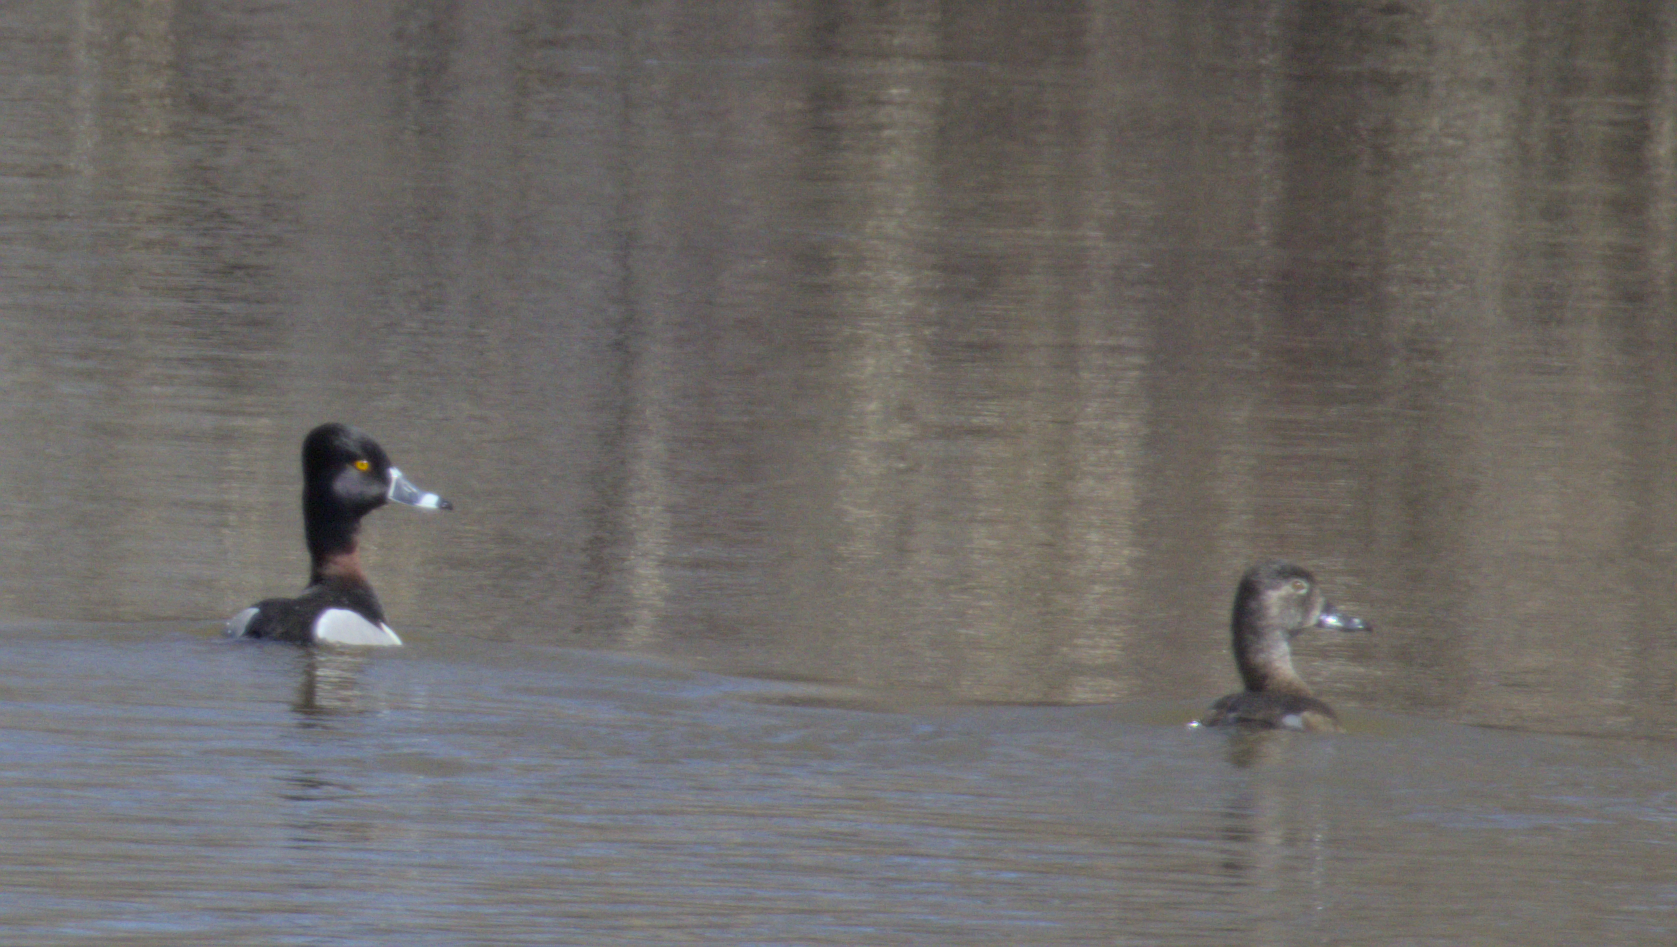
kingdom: Animalia
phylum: Chordata
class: Aves
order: Anseriformes
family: Anatidae
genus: Aythya
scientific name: Aythya collaris
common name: Ring-necked duck
